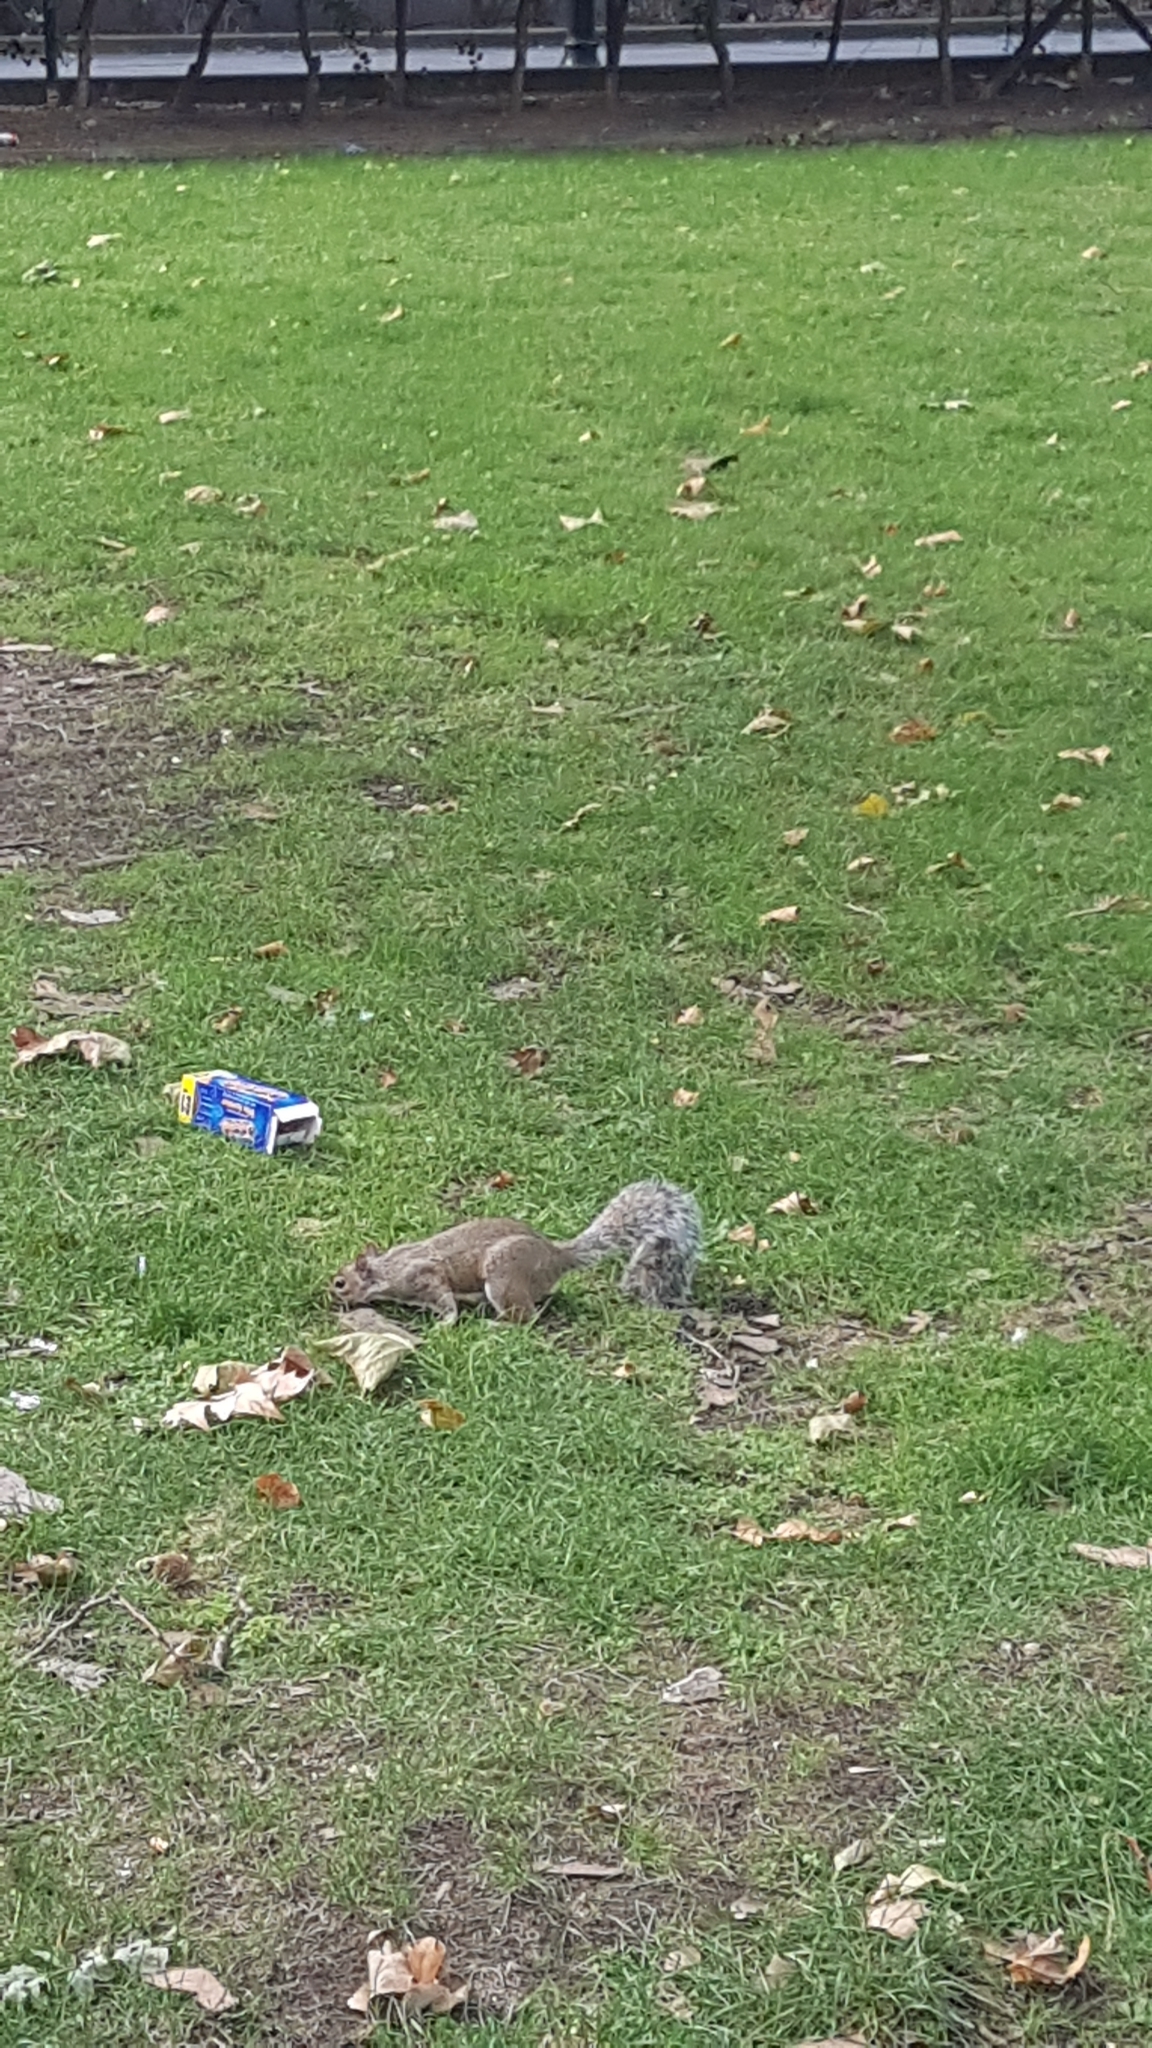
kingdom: Animalia
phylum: Chordata
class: Mammalia
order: Rodentia
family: Sciuridae
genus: Sciurus
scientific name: Sciurus carolinensis
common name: Eastern gray squirrel
